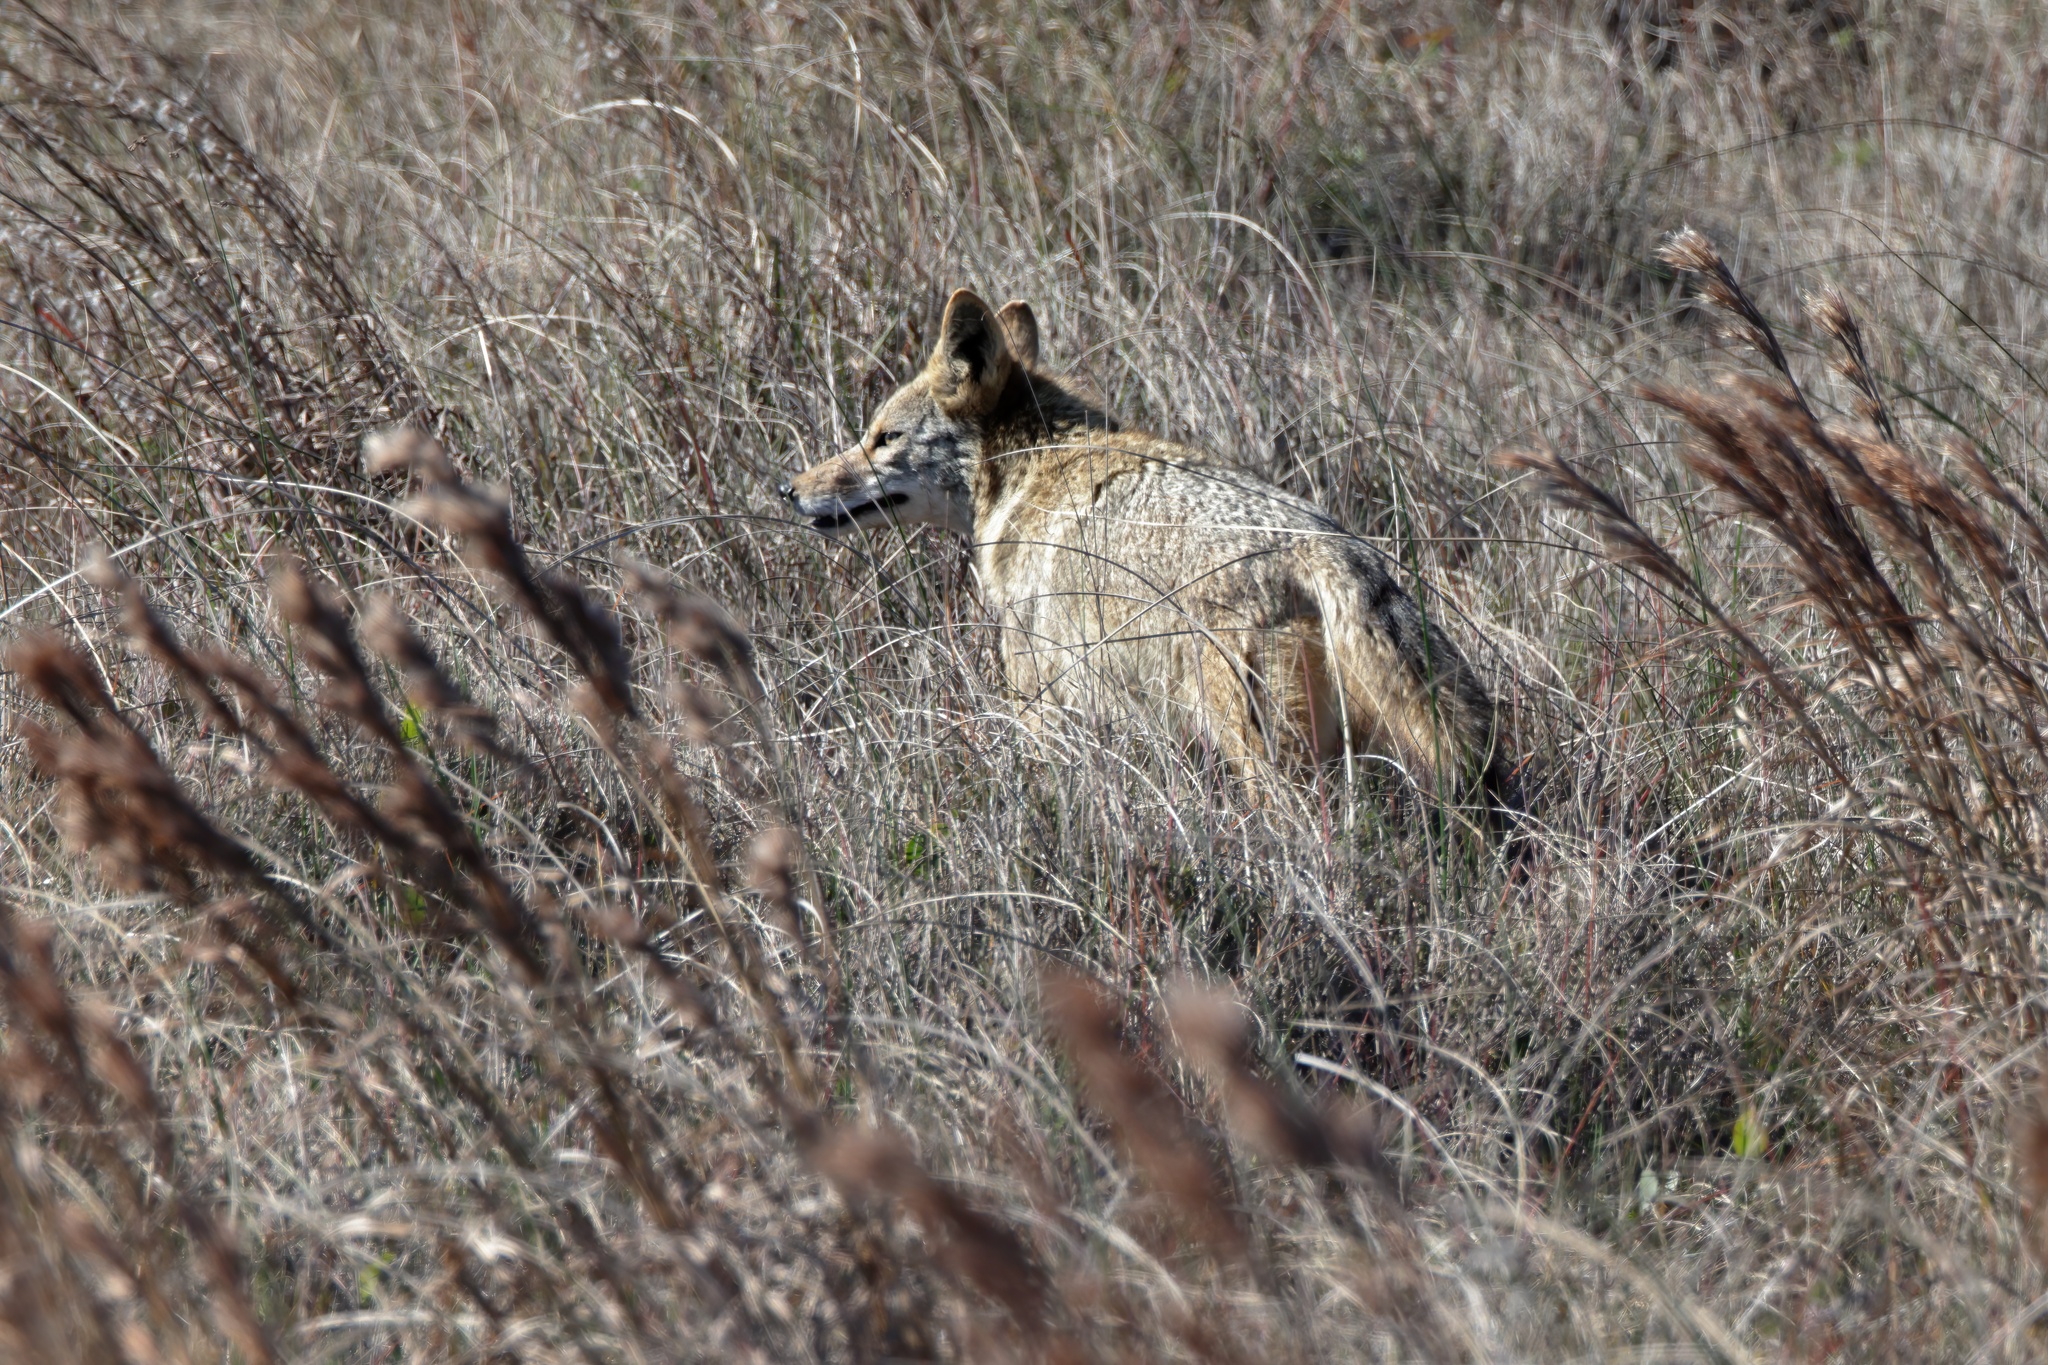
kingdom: Animalia
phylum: Chordata
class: Mammalia
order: Carnivora
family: Canidae
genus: Canis
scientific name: Canis latrans
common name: Coyote
